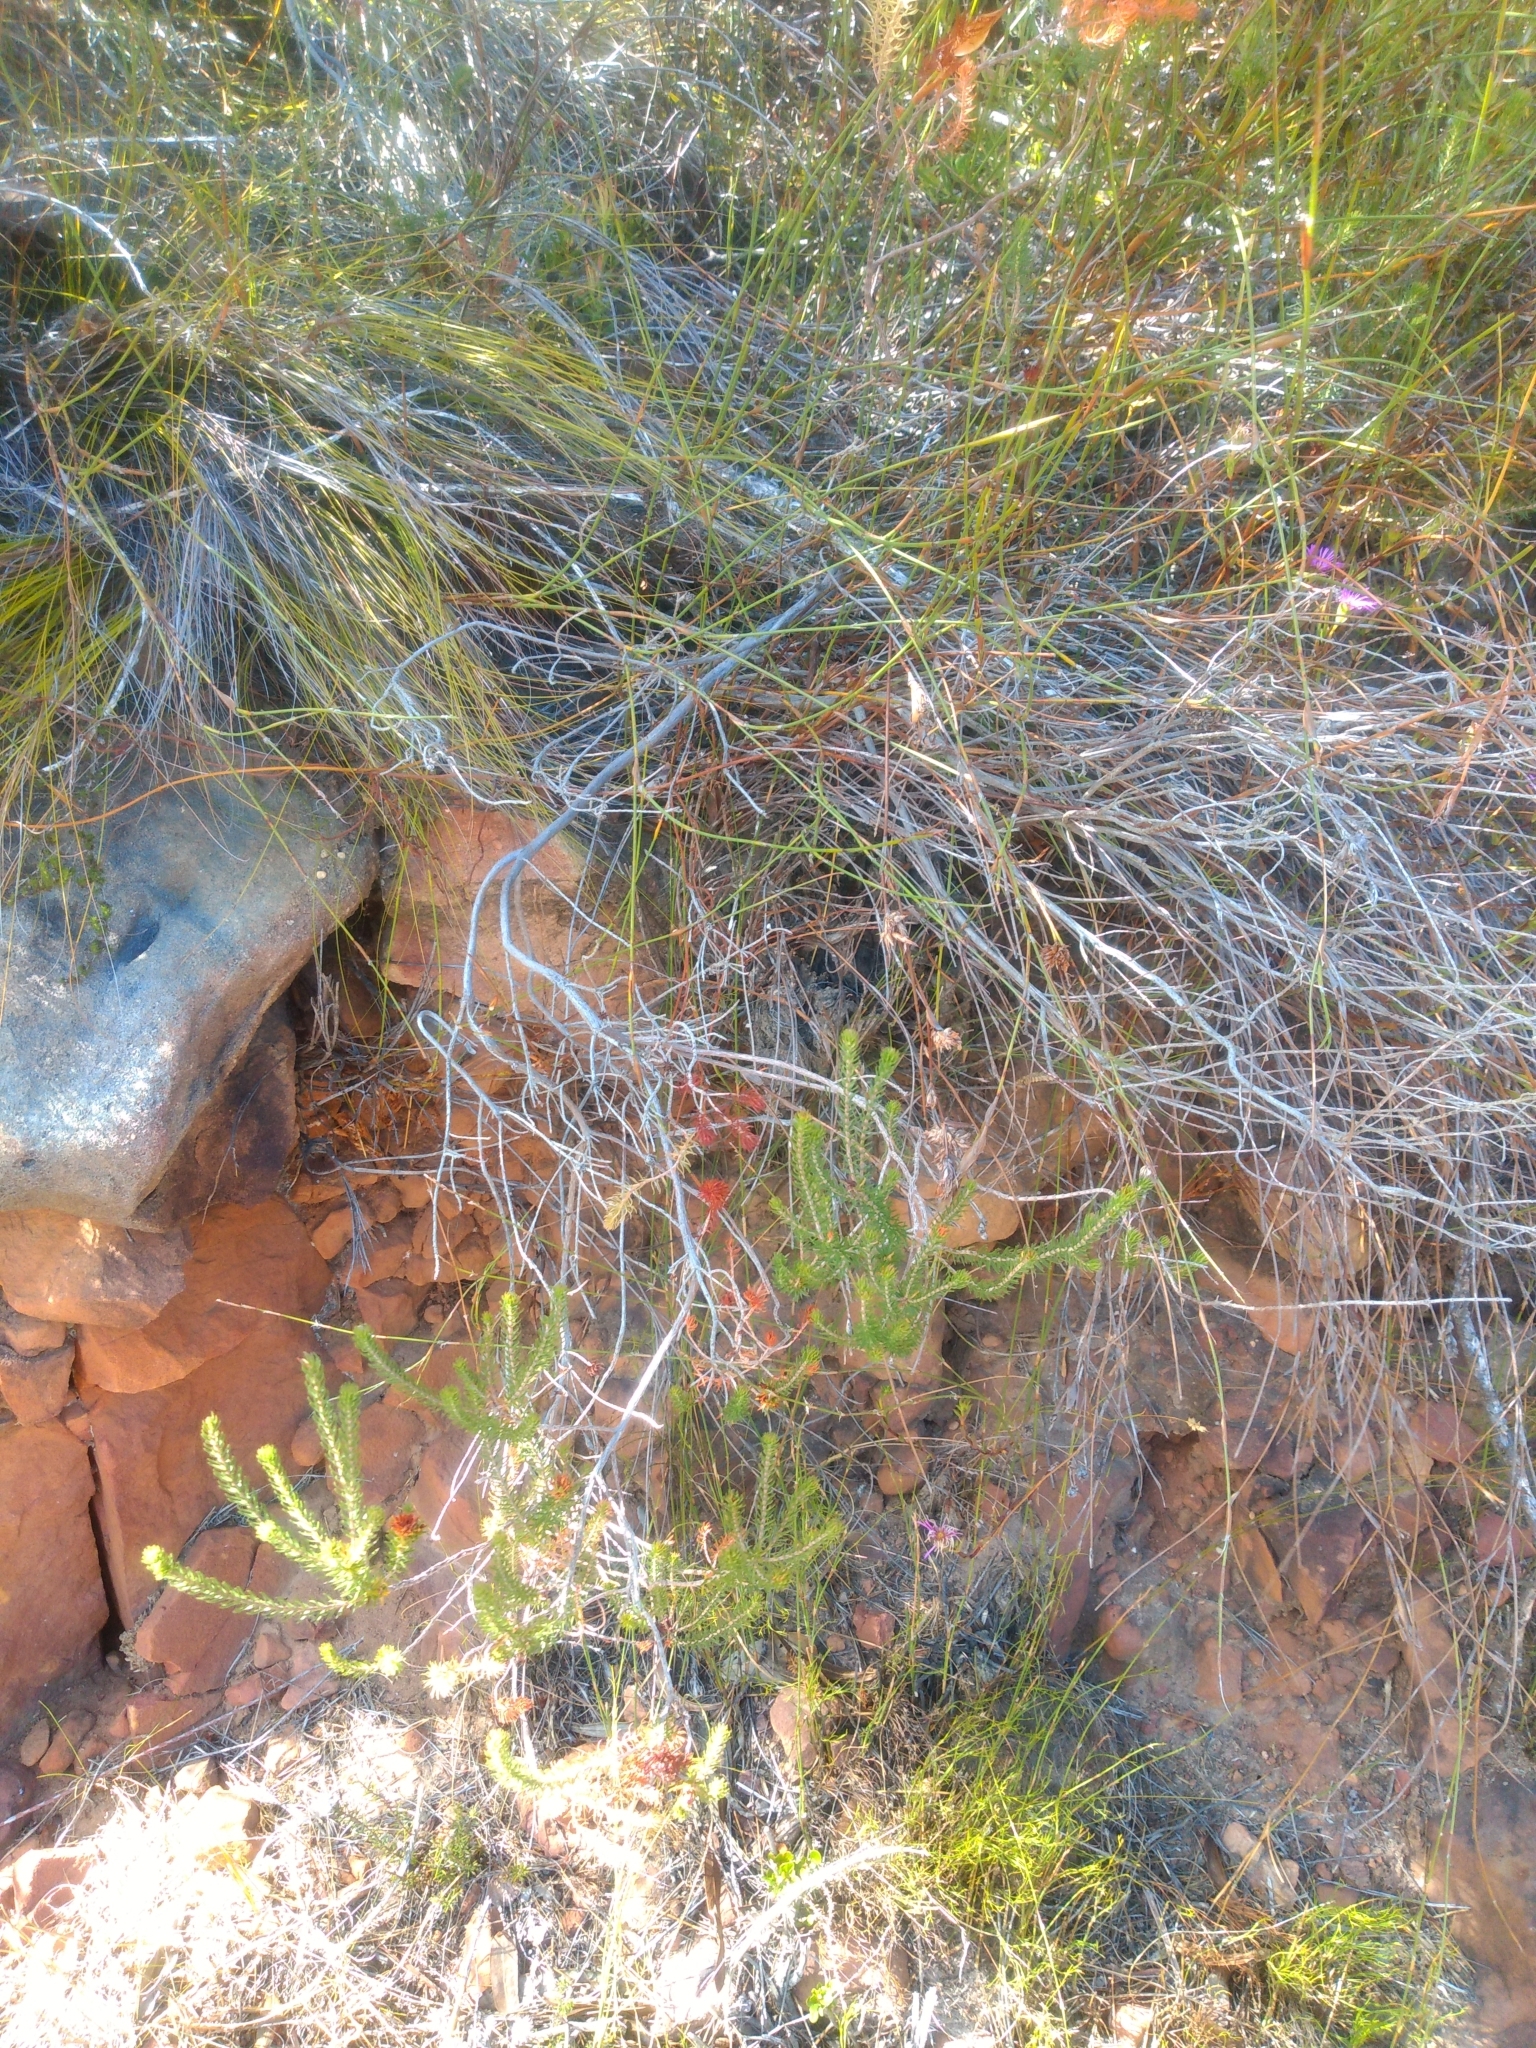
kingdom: Plantae
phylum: Tracheophyta
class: Magnoliopsida
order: Ericales
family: Ericaceae
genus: Erica
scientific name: Erica abietina
